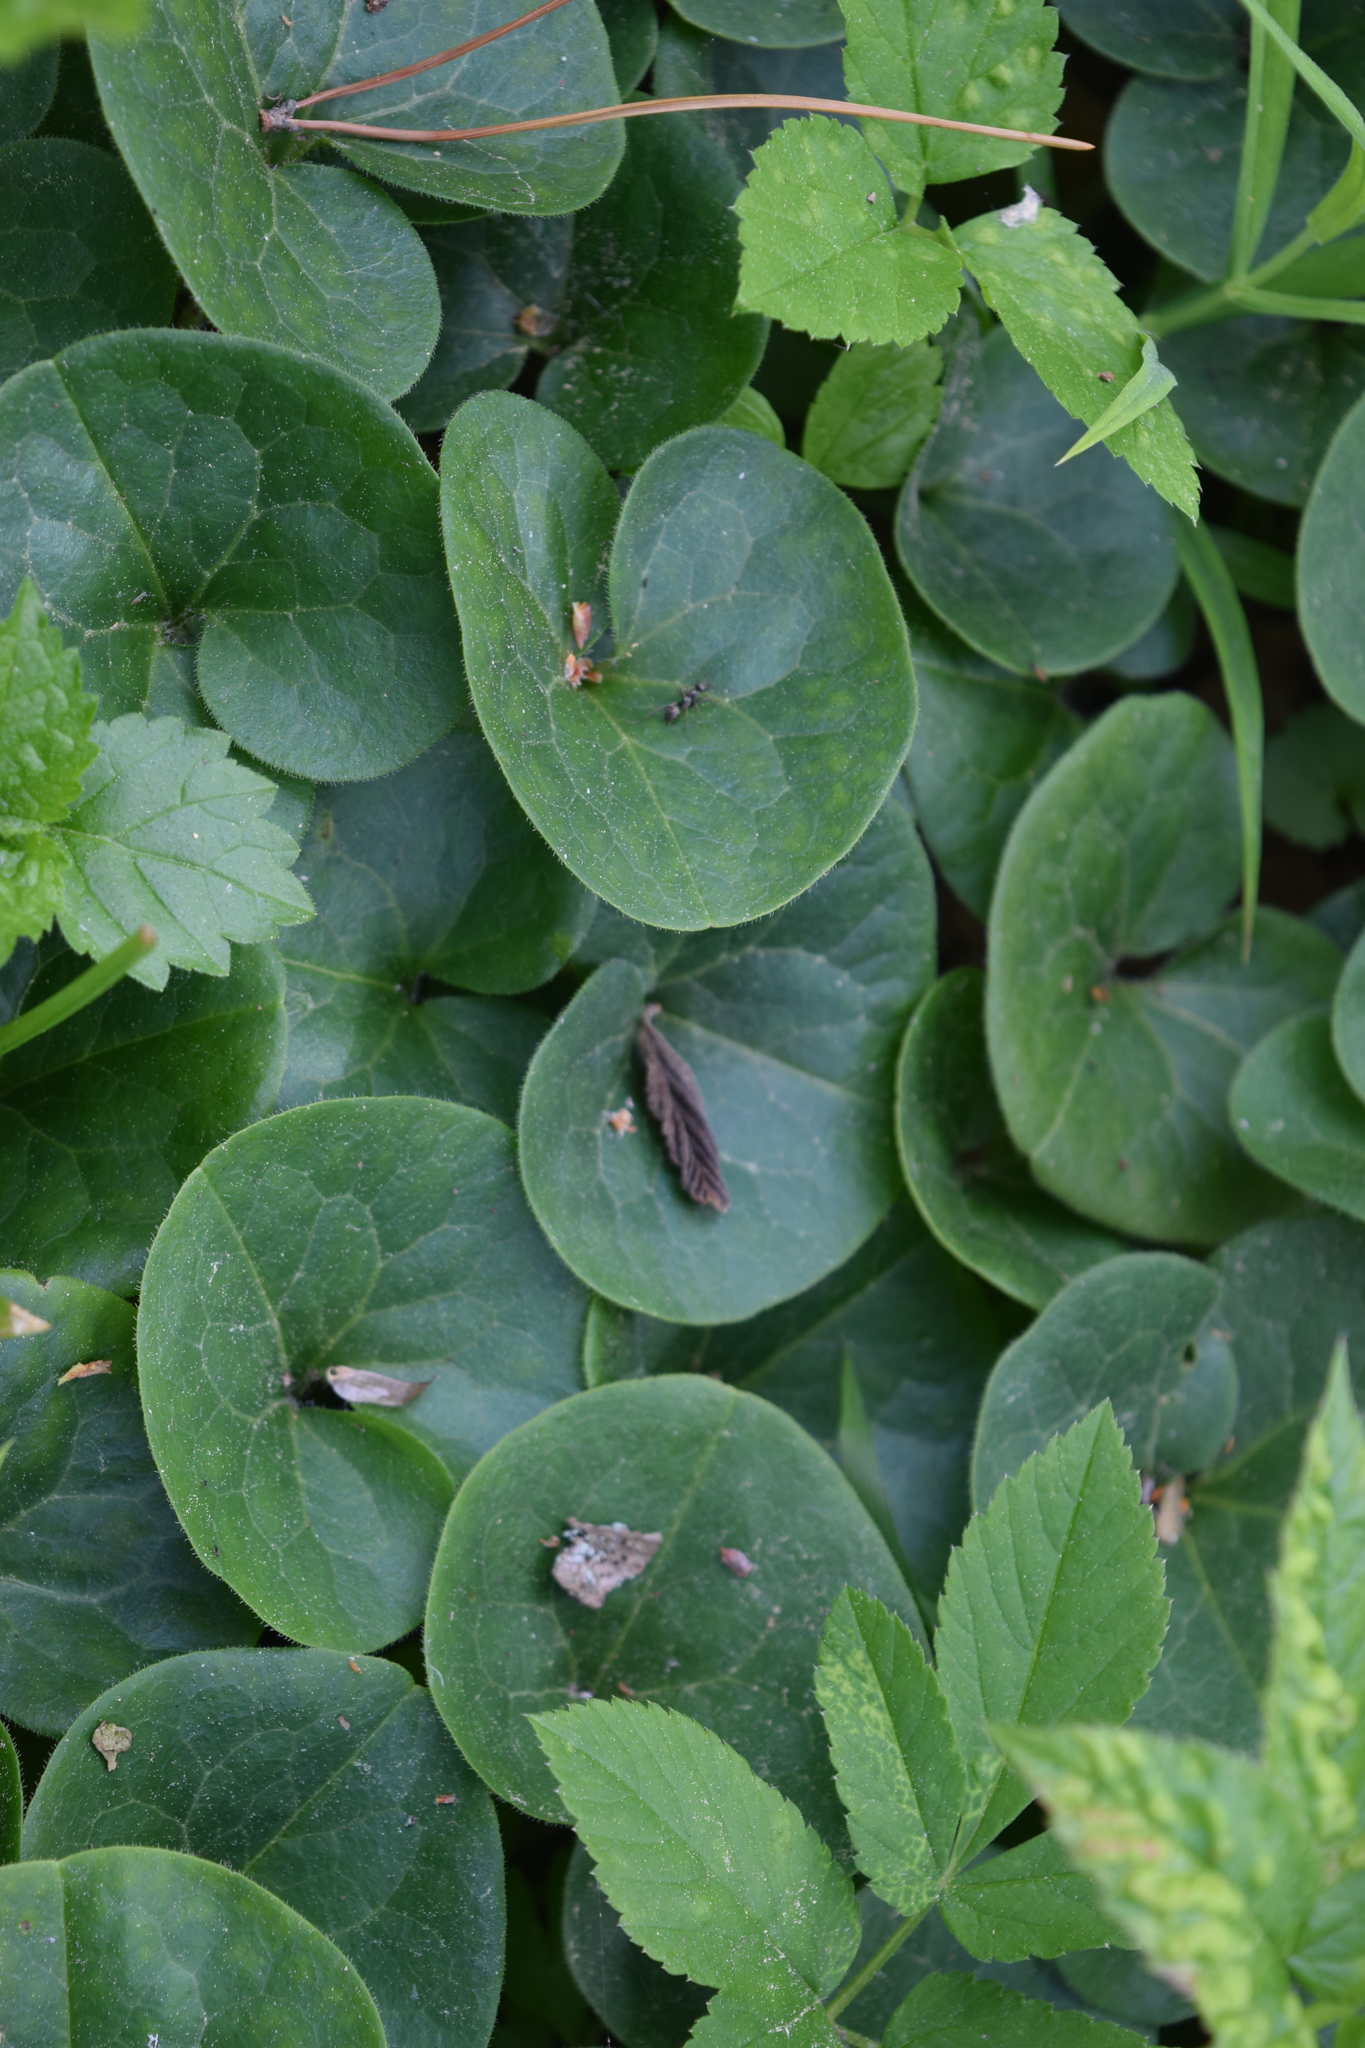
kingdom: Plantae
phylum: Tracheophyta
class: Magnoliopsida
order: Piperales
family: Aristolochiaceae
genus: Asarum
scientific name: Asarum europaeum
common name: Asarabacca
